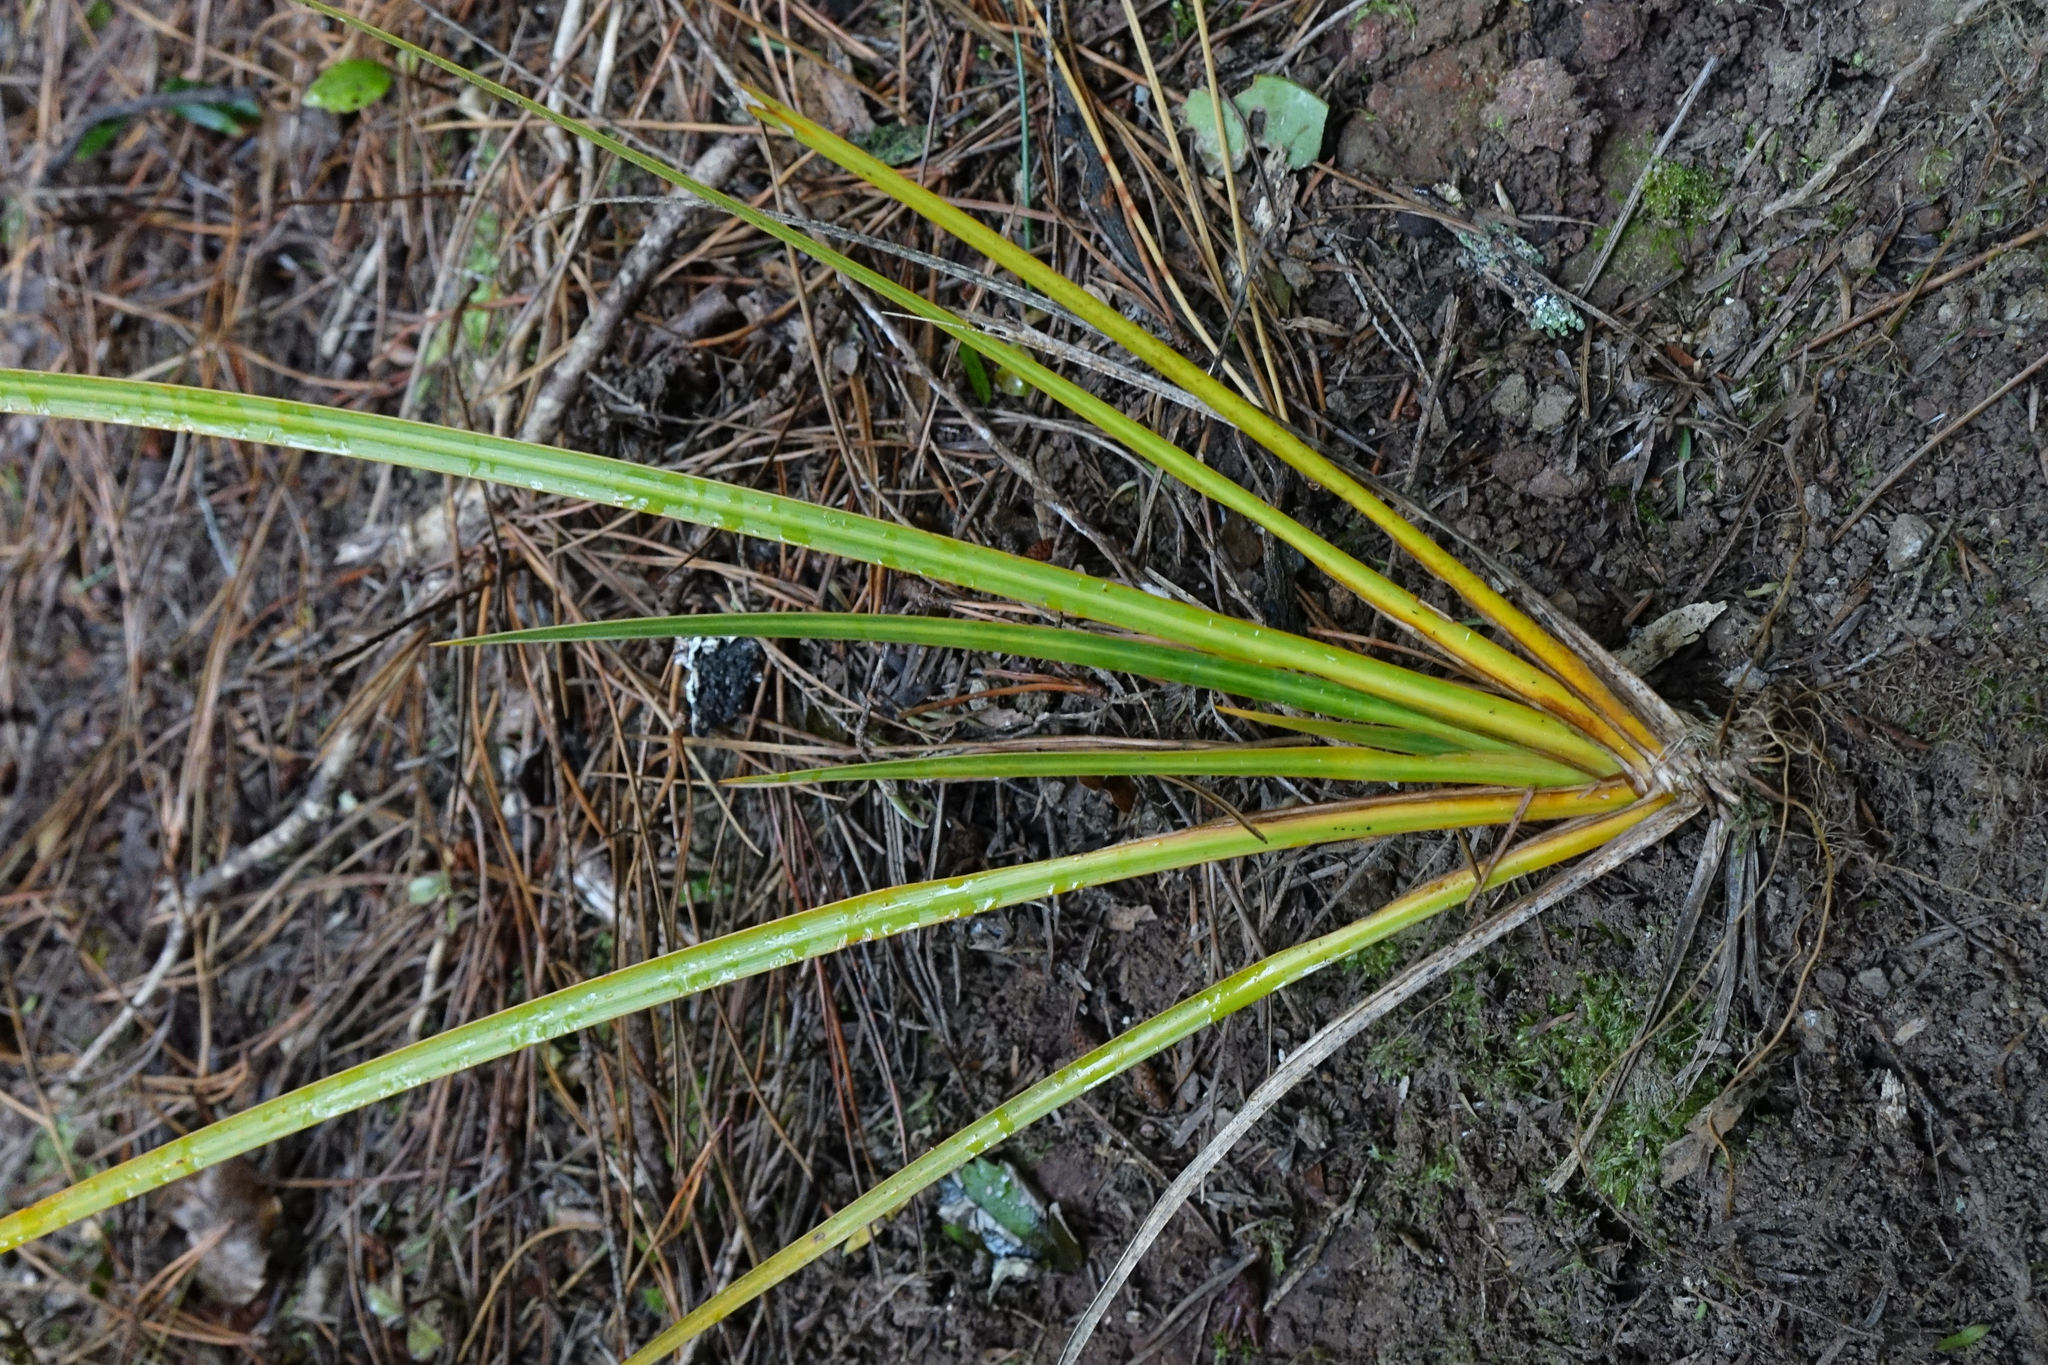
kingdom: Plantae
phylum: Tracheophyta
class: Liliopsida
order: Asparagales
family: Iridaceae
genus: Libertia
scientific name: Libertia ixioides
